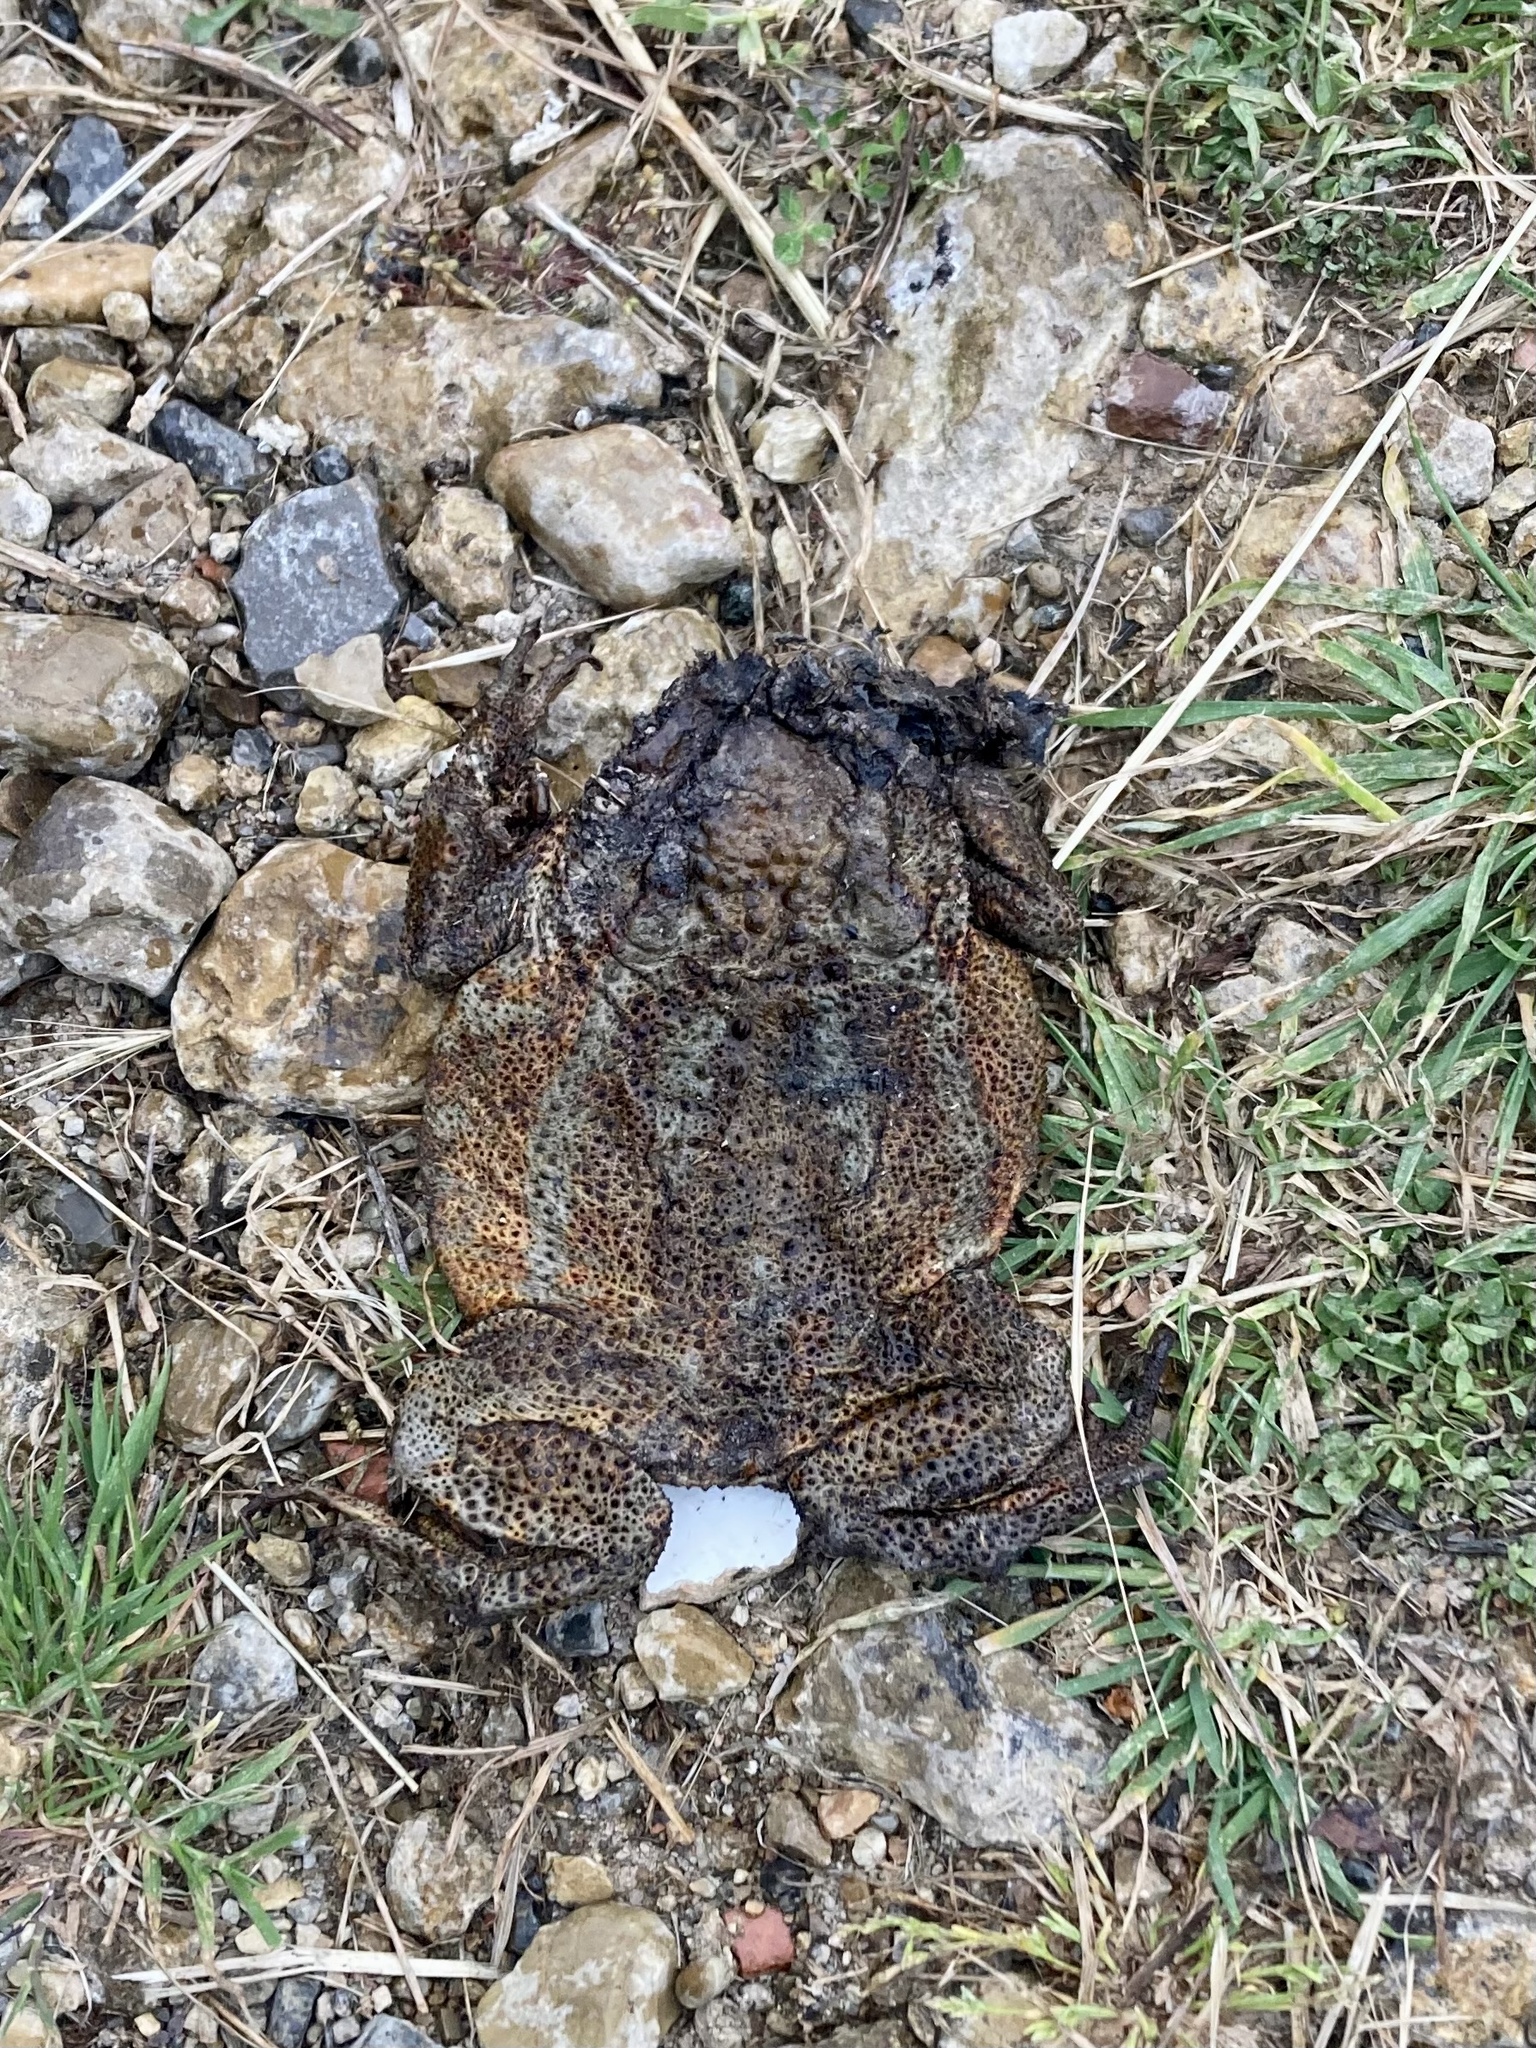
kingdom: Animalia
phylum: Chordata
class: Amphibia
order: Anura
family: Bufonidae
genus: Bufo
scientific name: Bufo bufo
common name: Common toad
